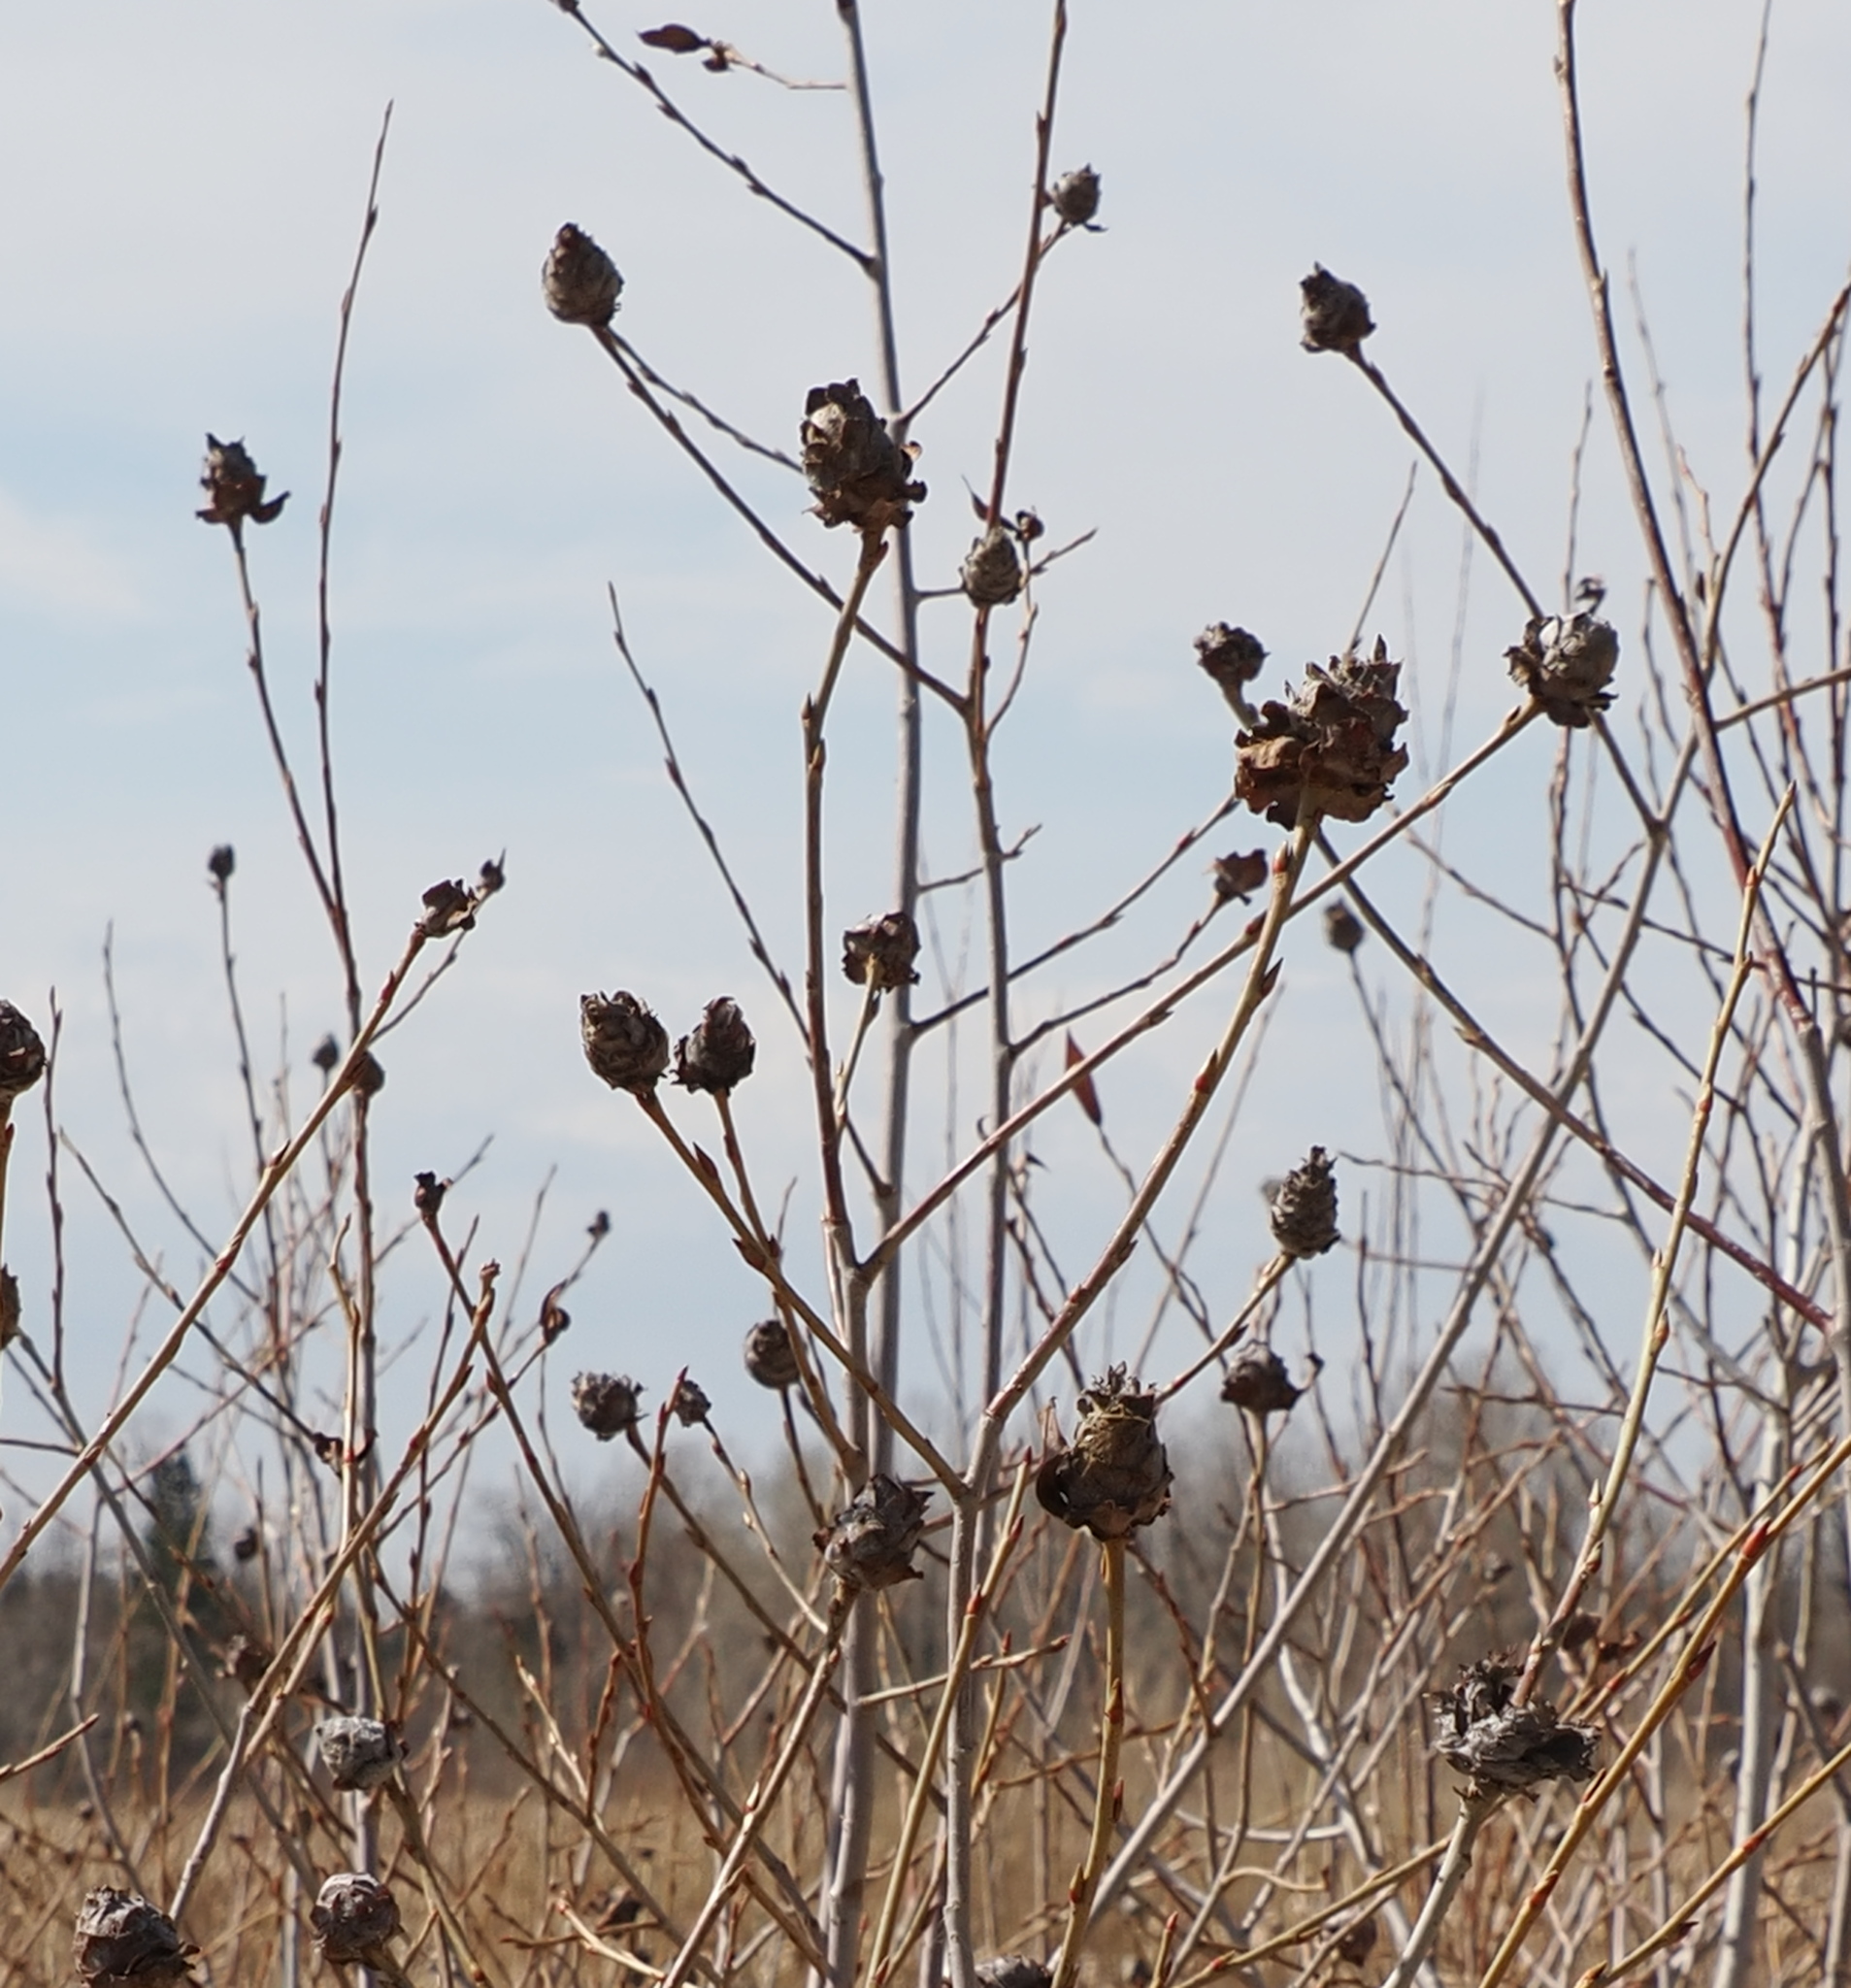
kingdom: Animalia
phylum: Arthropoda
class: Insecta
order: Diptera
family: Cecidomyiidae
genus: Rabdophaga
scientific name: Rabdophaga strobiloides
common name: Willow pinecone gall midge
